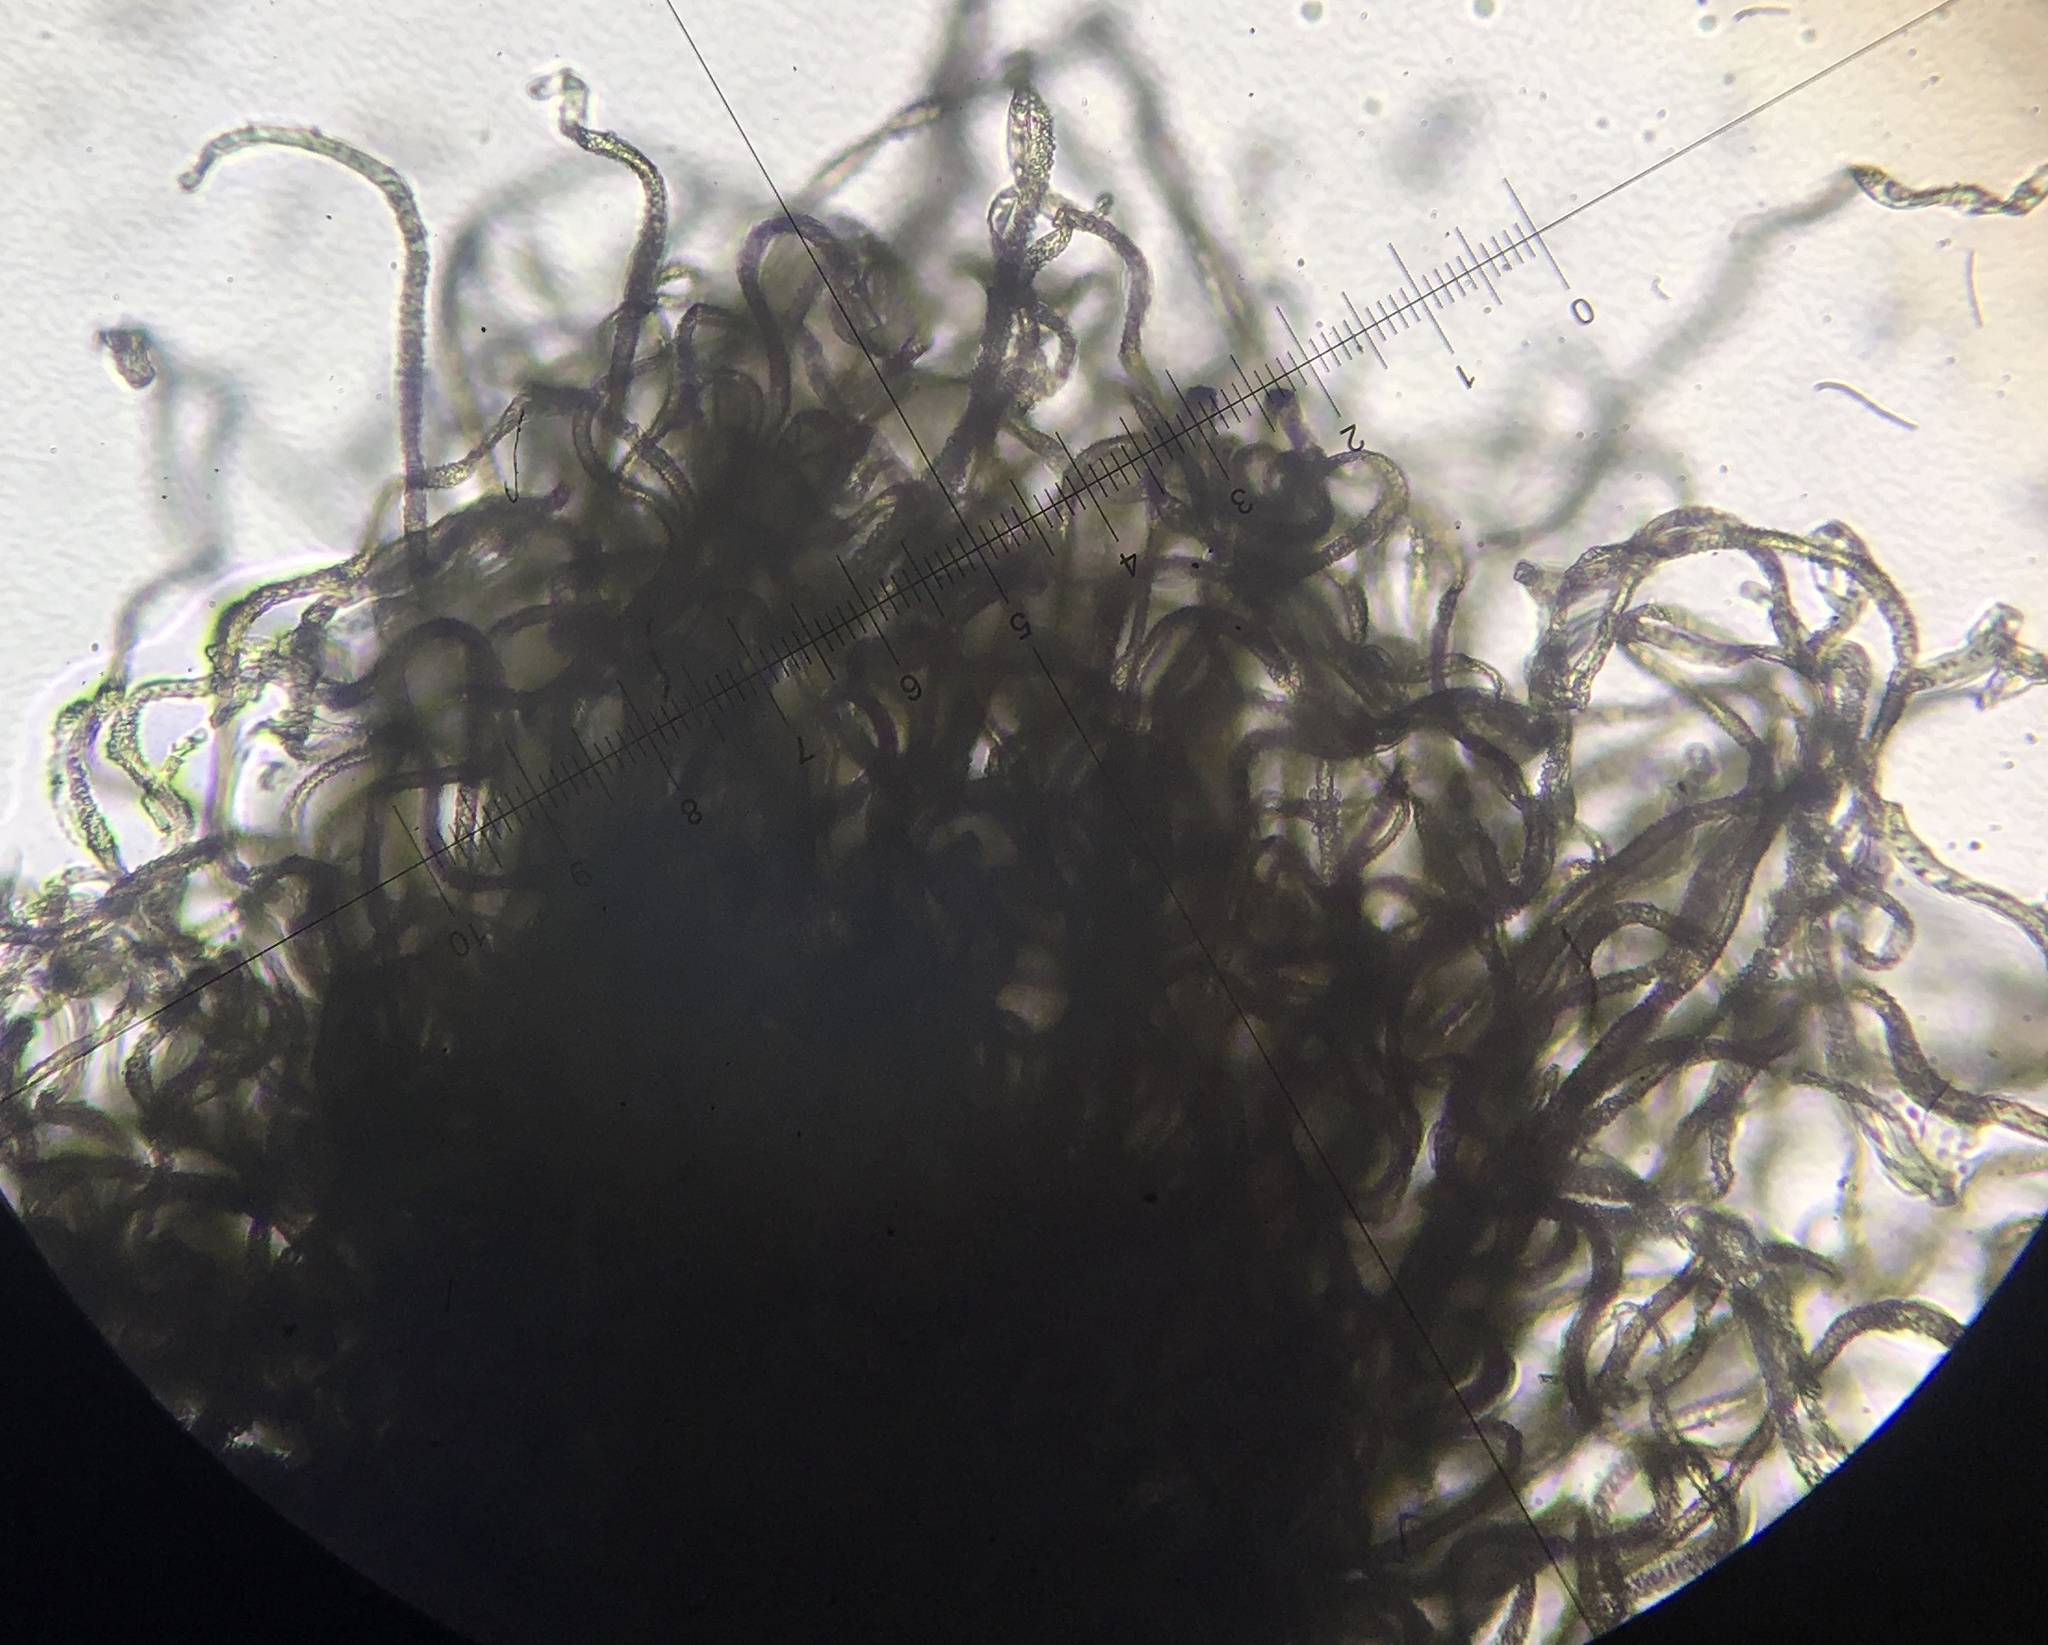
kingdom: Fungi
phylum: Ascomycota
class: Sordariomycetes
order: Sordariales
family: Chaetomiaceae
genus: Trichocladium
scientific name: Trichocladium crispatum
